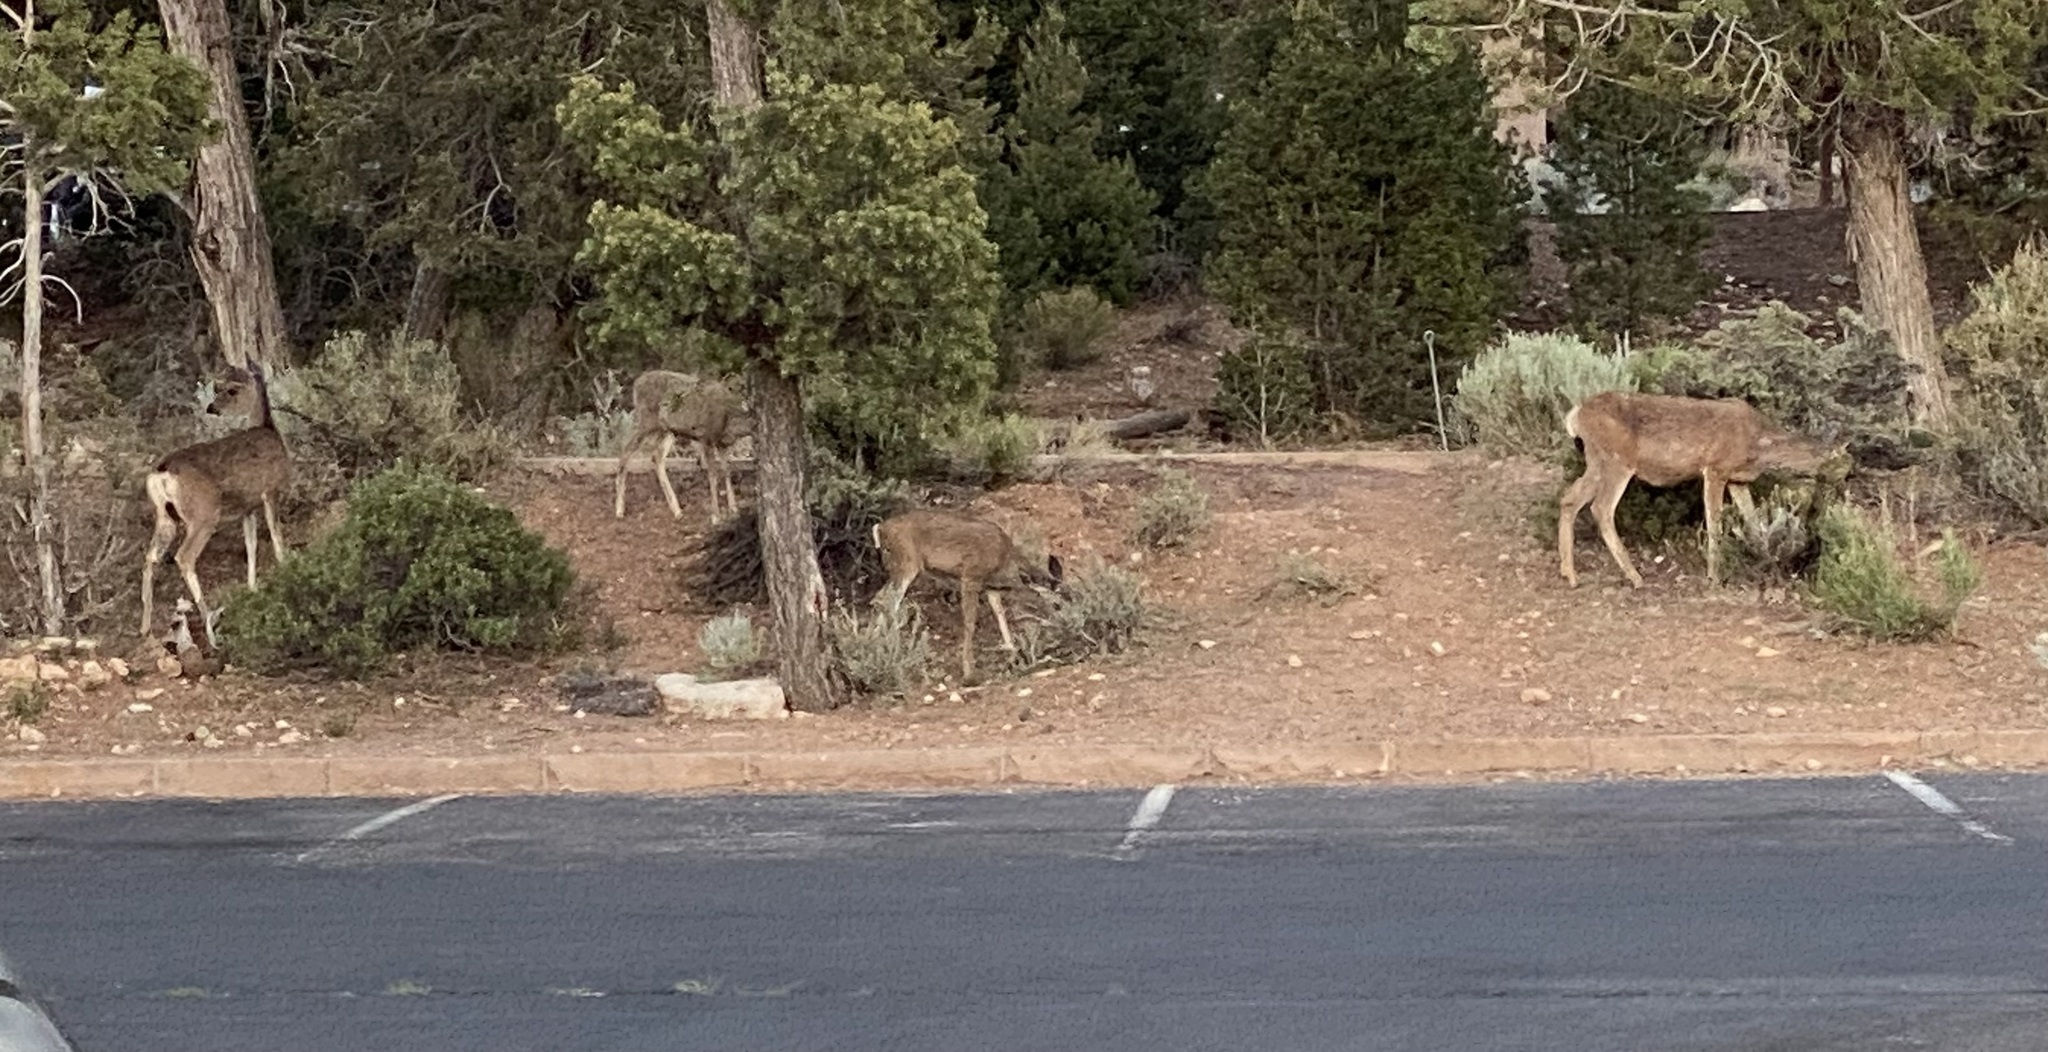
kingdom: Animalia
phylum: Chordata
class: Mammalia
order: Artiodactyla
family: Cervidae
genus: Odocoileus
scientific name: Odocoileus hemionus
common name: Mule deer
